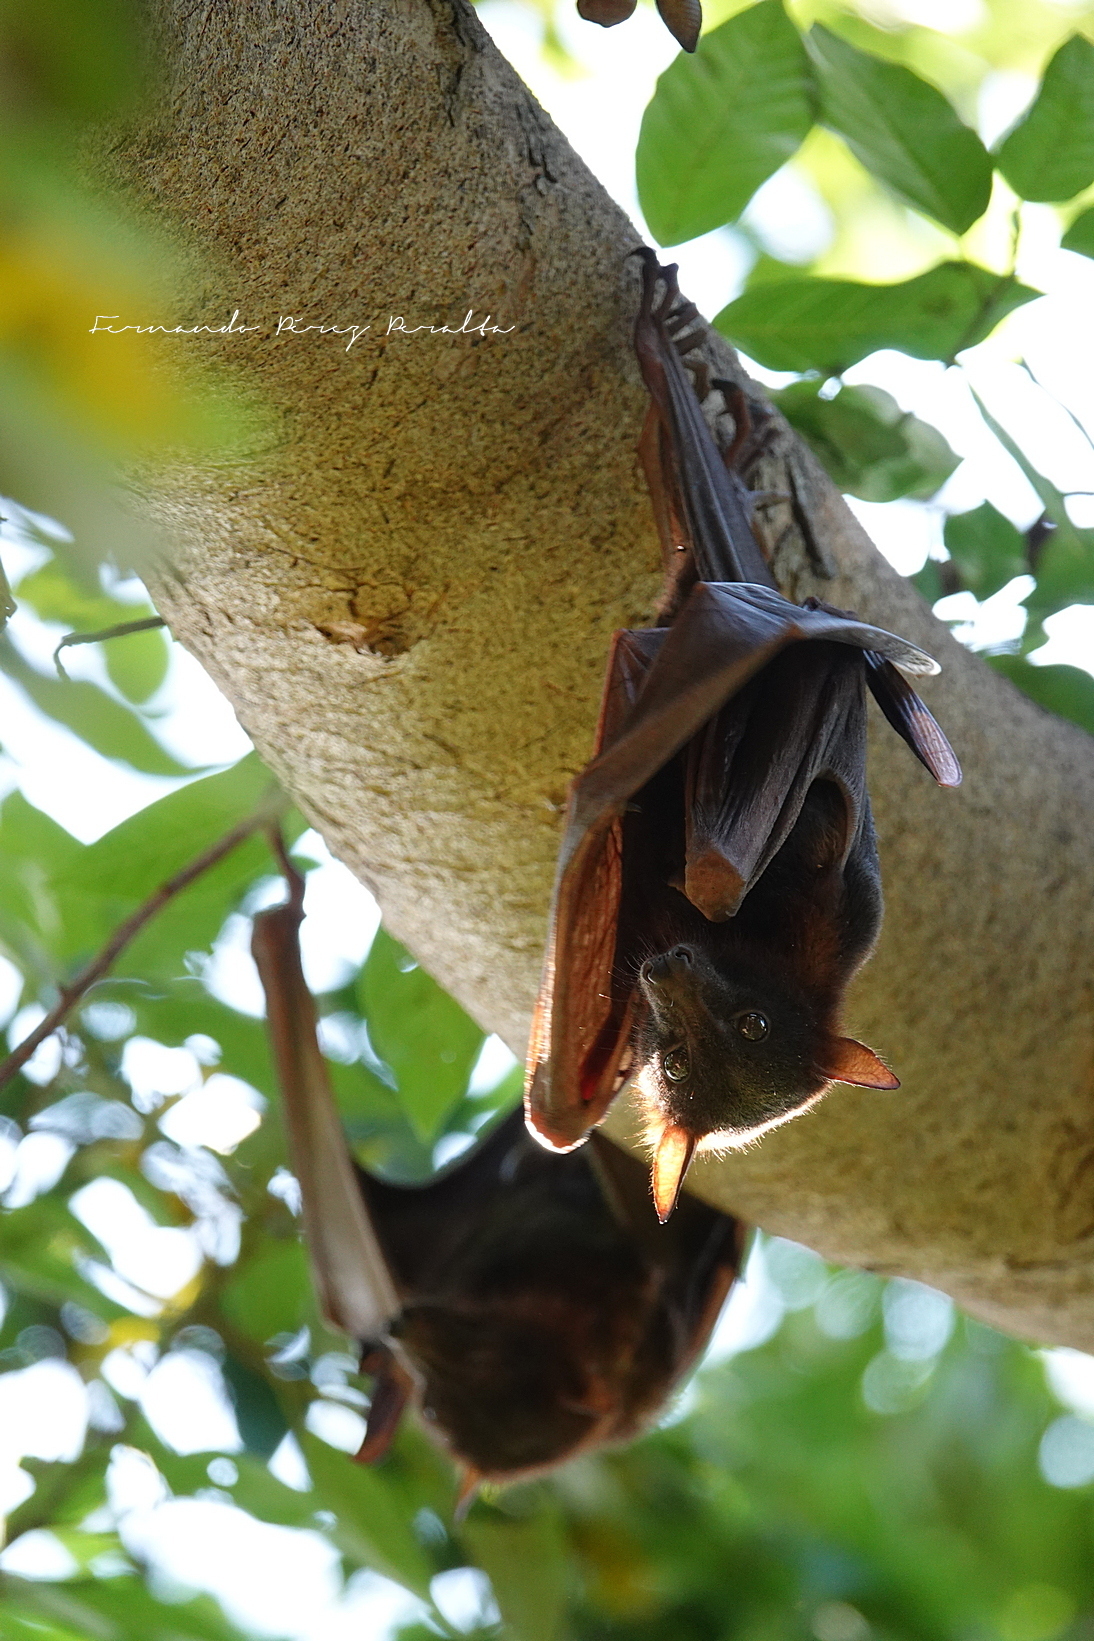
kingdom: Animalia
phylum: Chordata
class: Mammalia
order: Chiroptera
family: Pteropodidae
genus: Pteropus
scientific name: Pteropus scapulatus
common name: Little red flying fox
